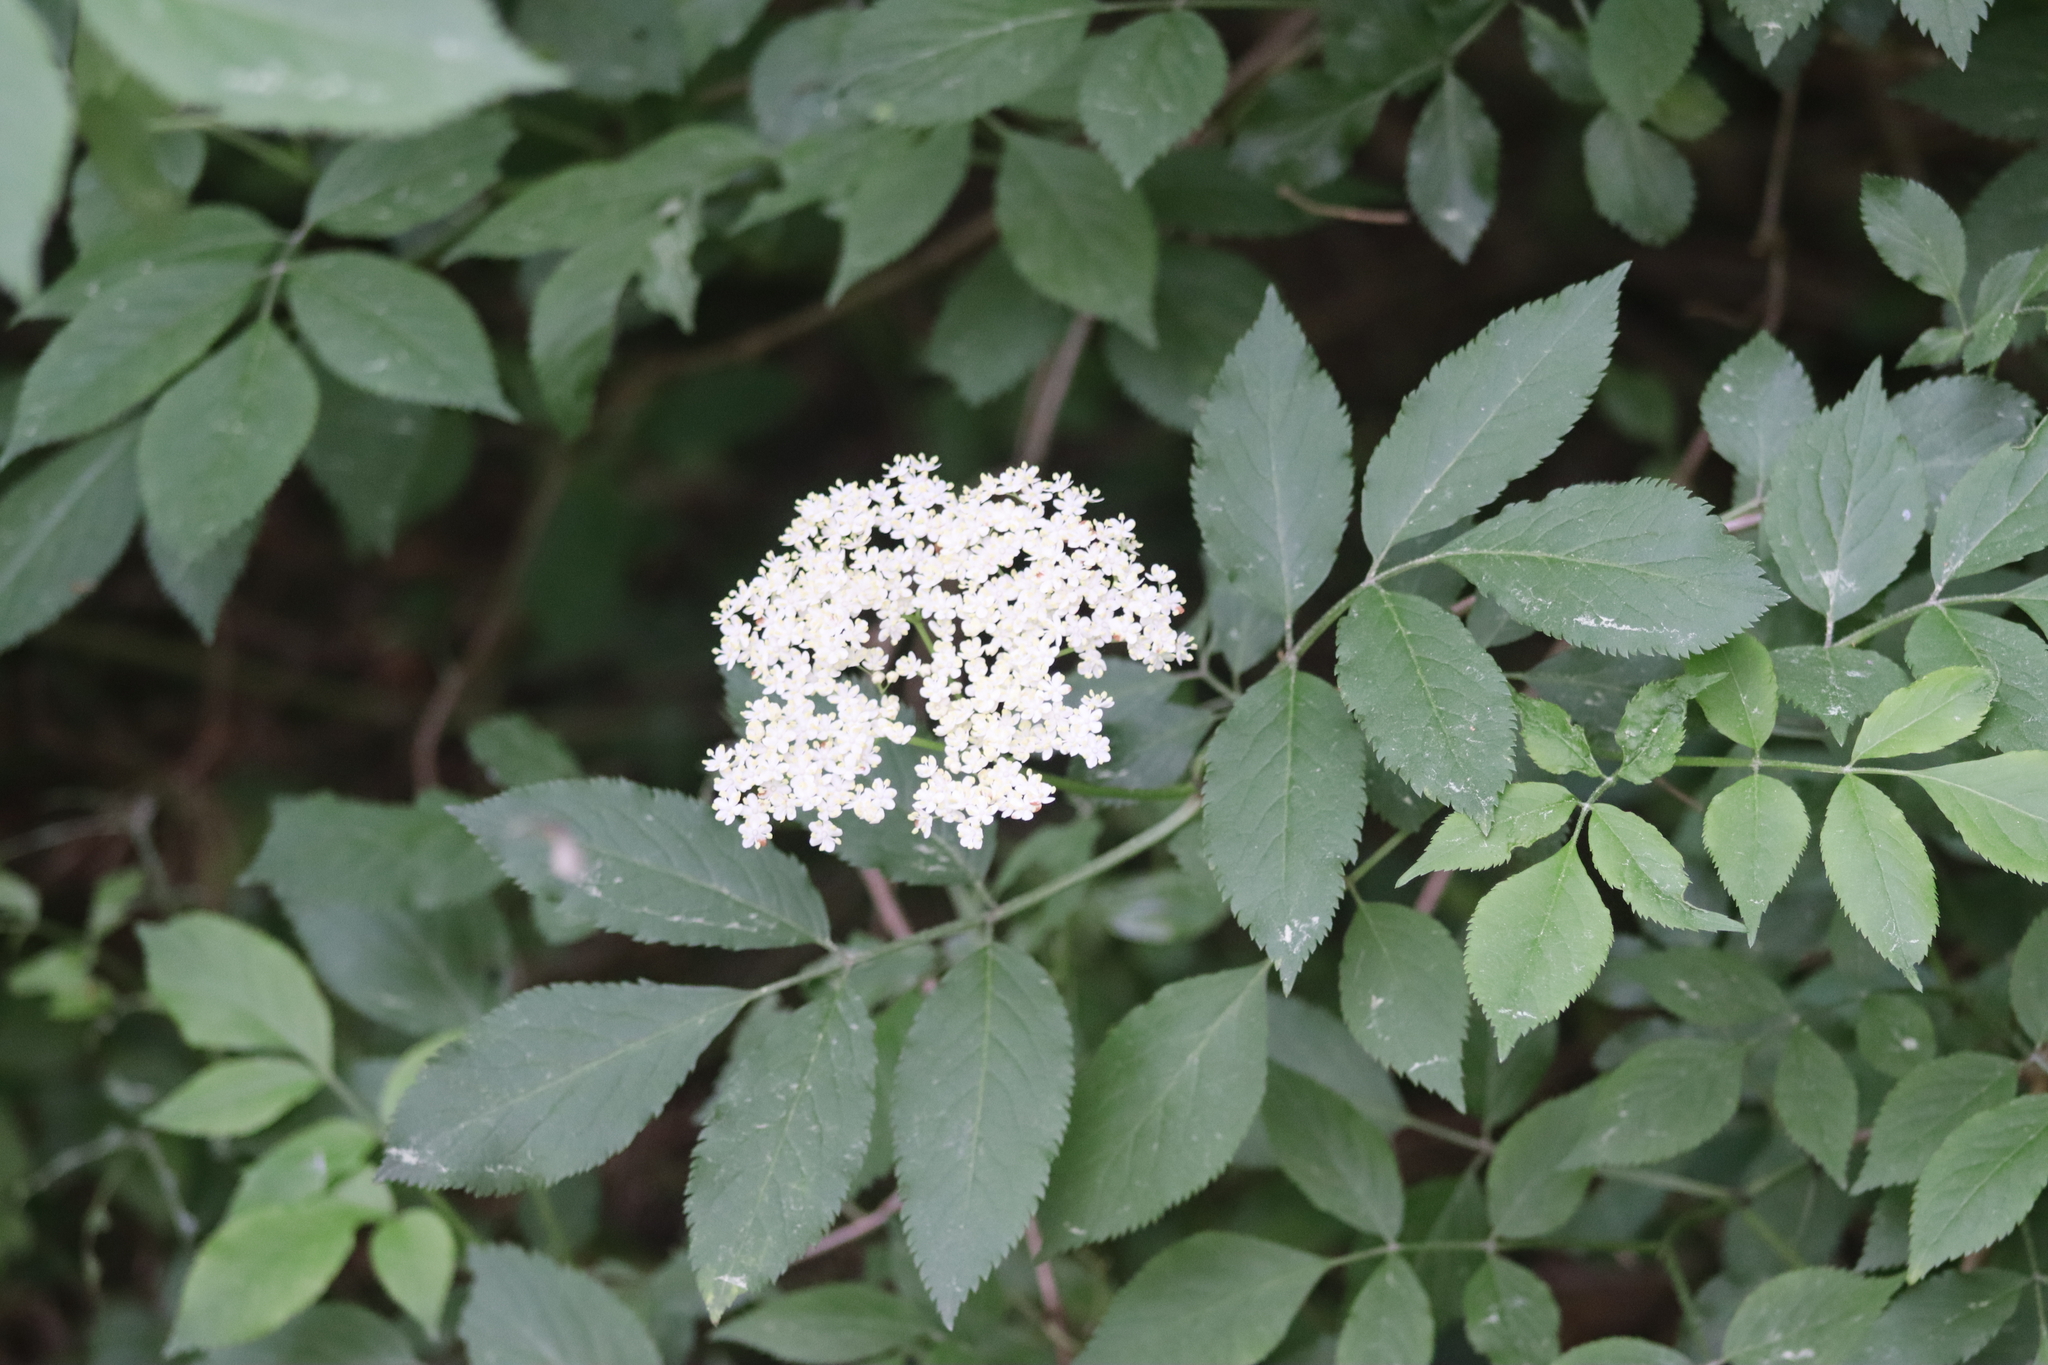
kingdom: Plantae
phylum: Tracheophyta
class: Magnoliopsida
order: Dipsacales
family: Viburnaceae
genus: Sambucus
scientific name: Sambucus nigra
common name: Elder
